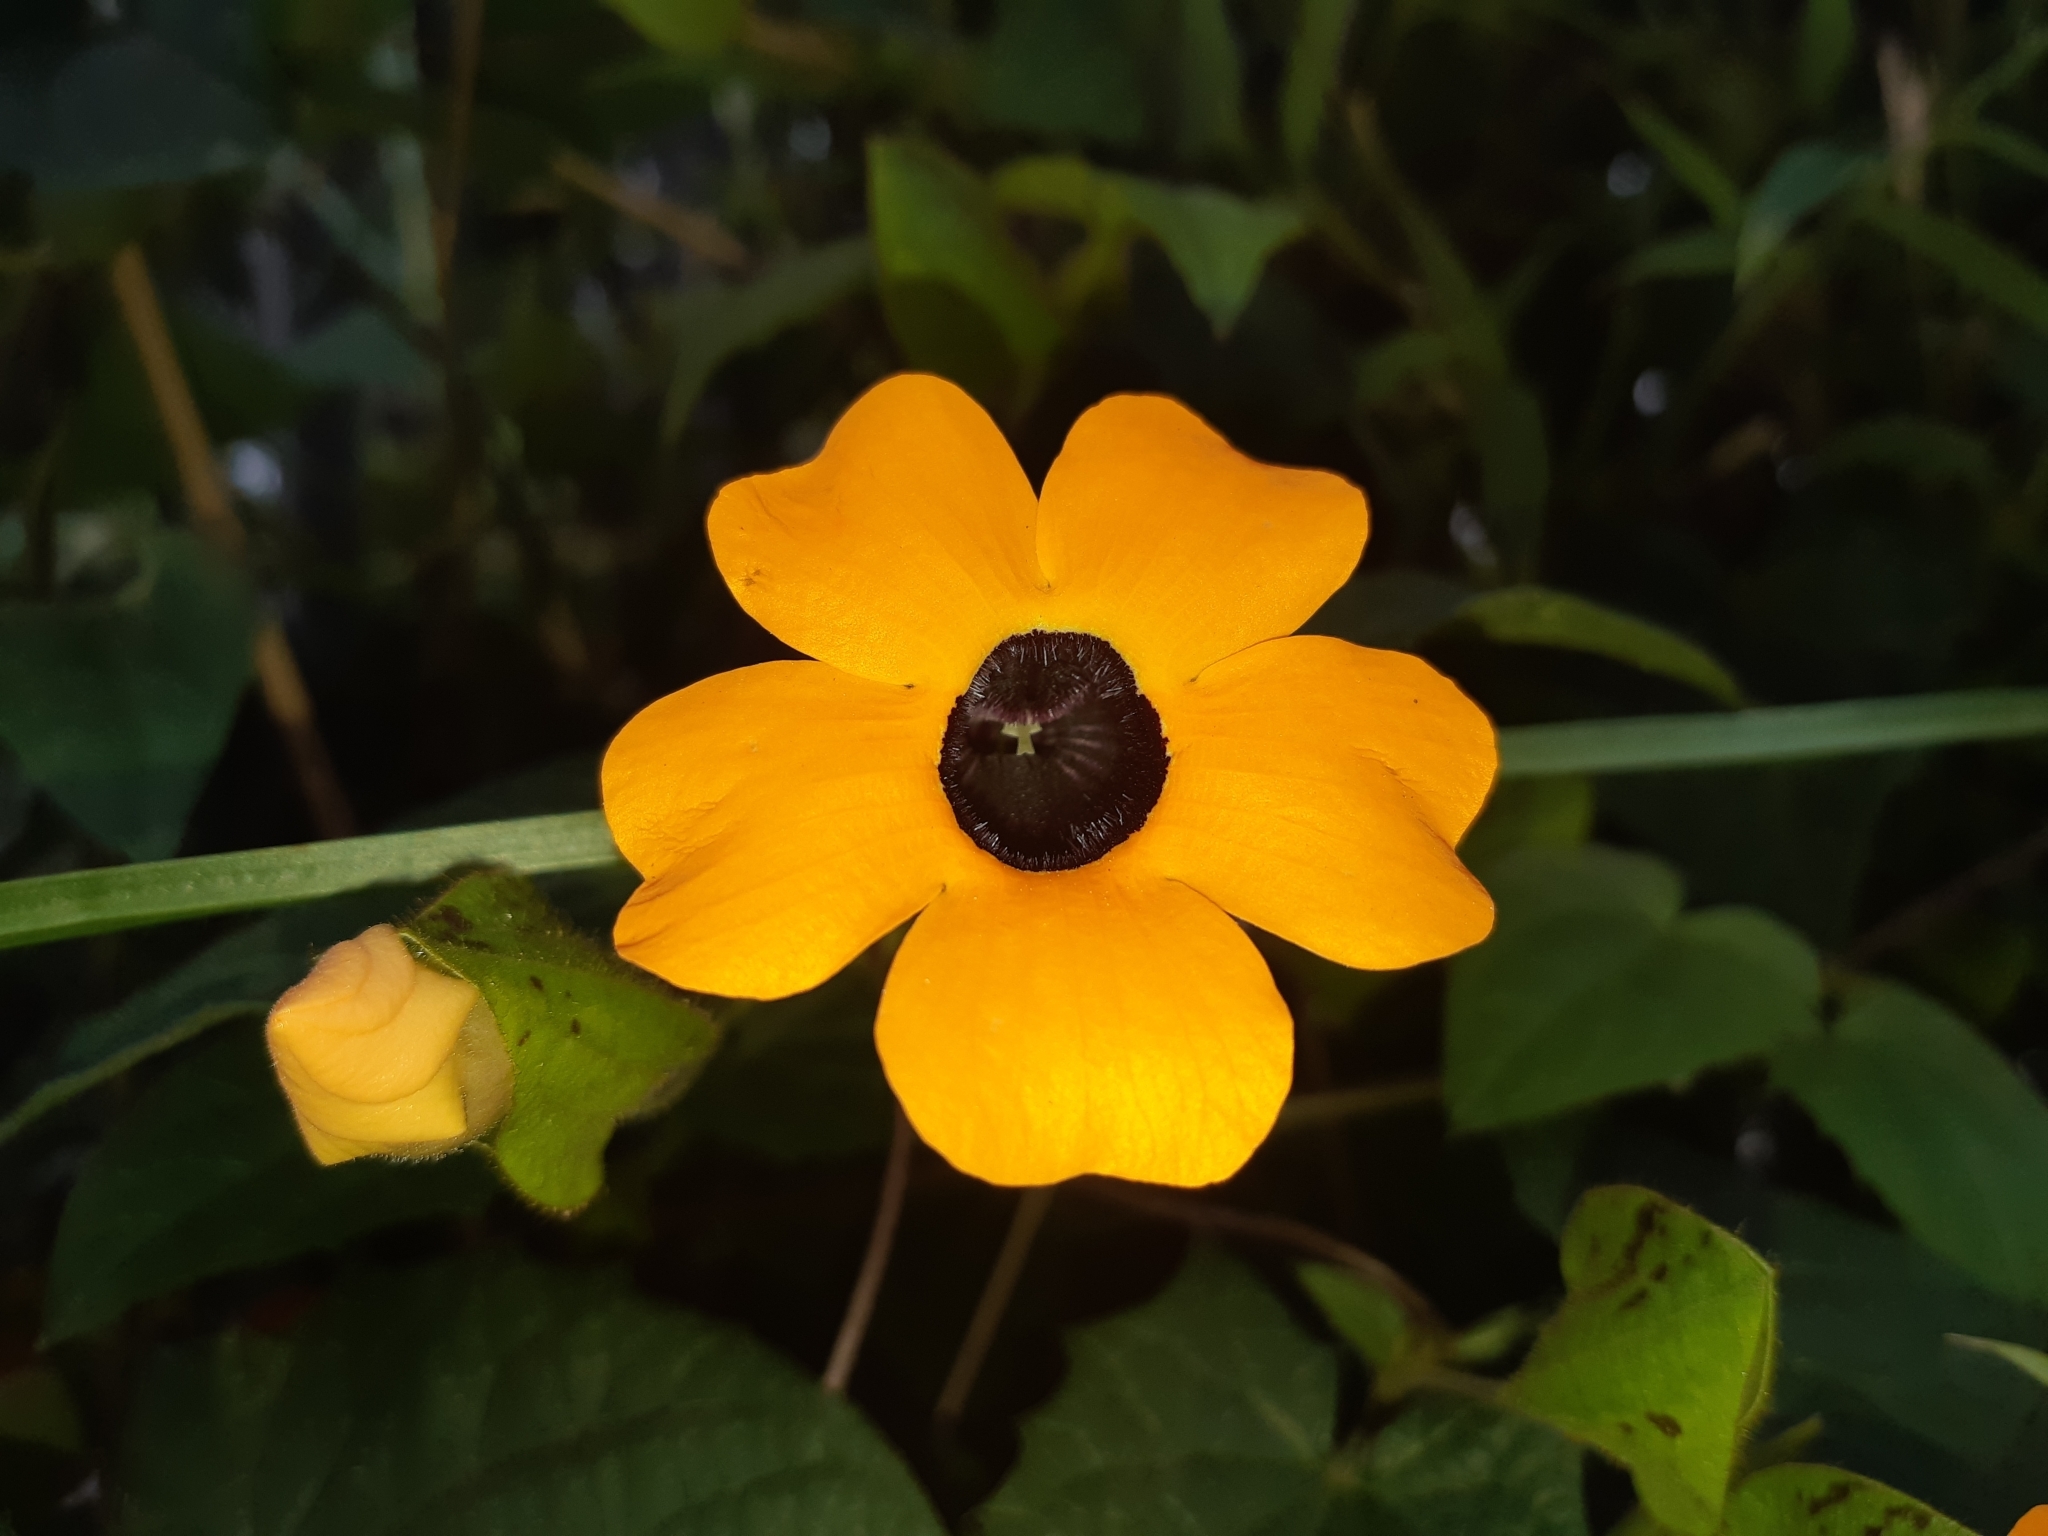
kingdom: Plantae
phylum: Tracheophyta
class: Magnoliopsida
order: Lamiales
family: Acanthaceae
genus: Thunbergia
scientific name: Thunbergia alata
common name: Blackeyed susan vine
